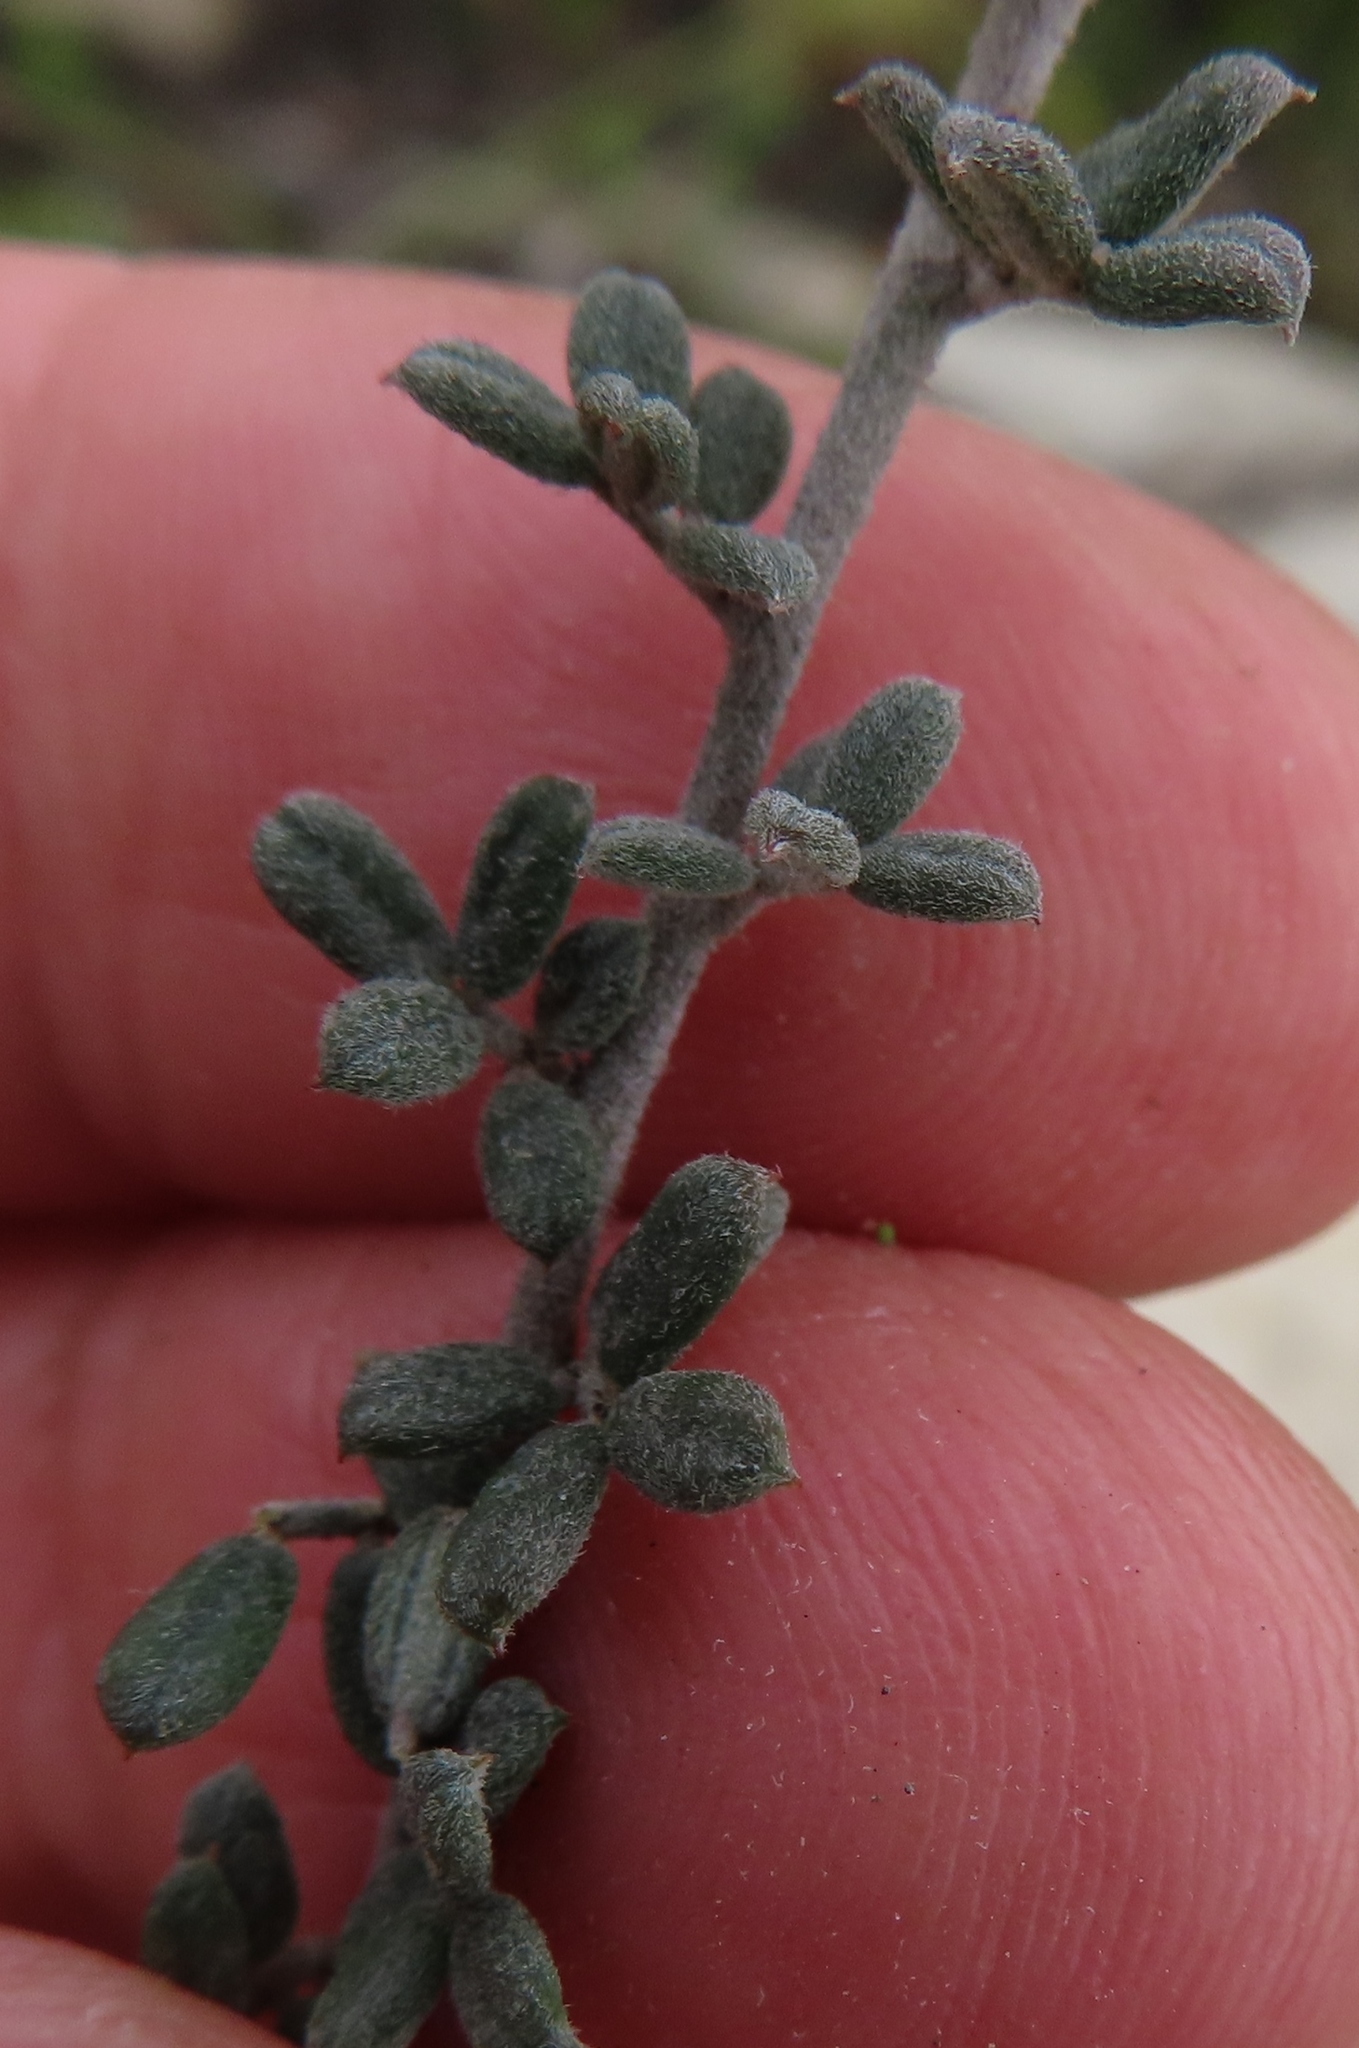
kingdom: Plantae
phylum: Tracheophyta
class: Magnoliopsida
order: Fabales
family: Fabaceae
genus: Indigofera
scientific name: Indigofera
